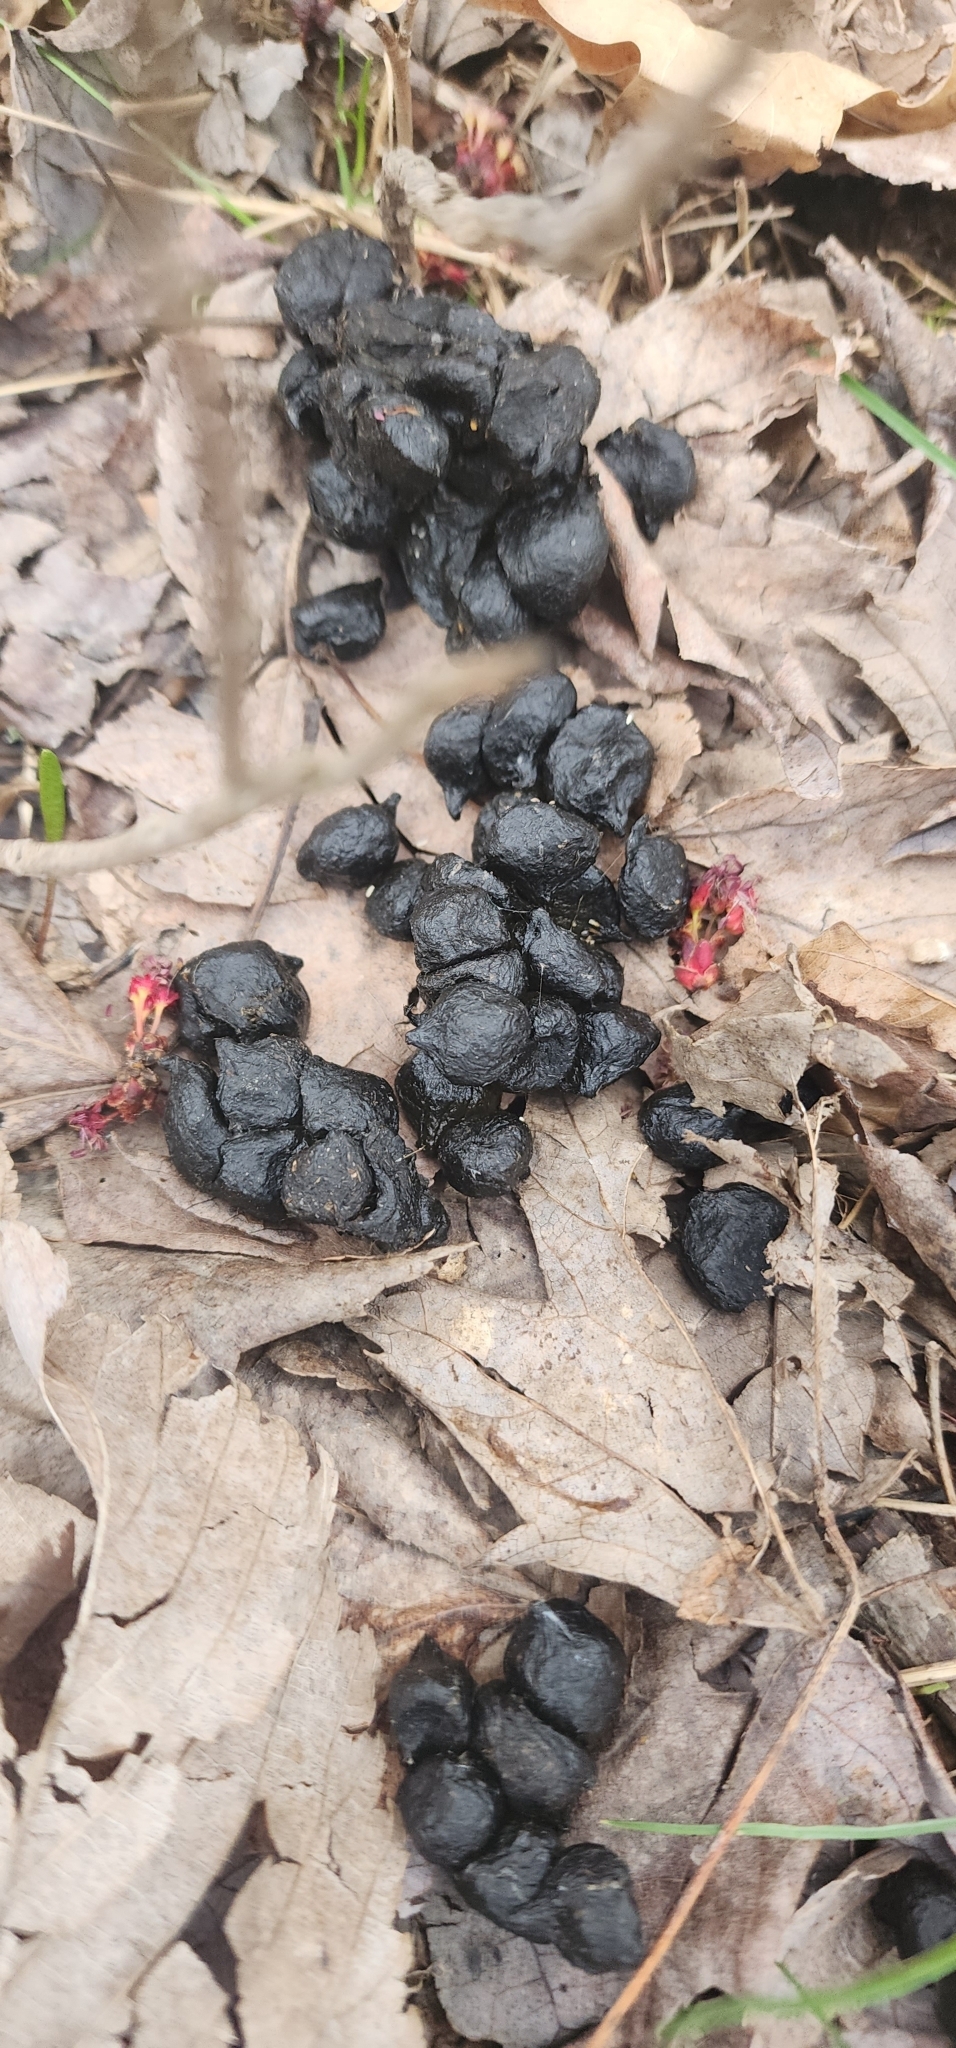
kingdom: Animalia
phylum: Chordata
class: Mammalia
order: Artiodactyla
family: Cervidae
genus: Odocoileus
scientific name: Odocoileus virginianus
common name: White-tailed deer
